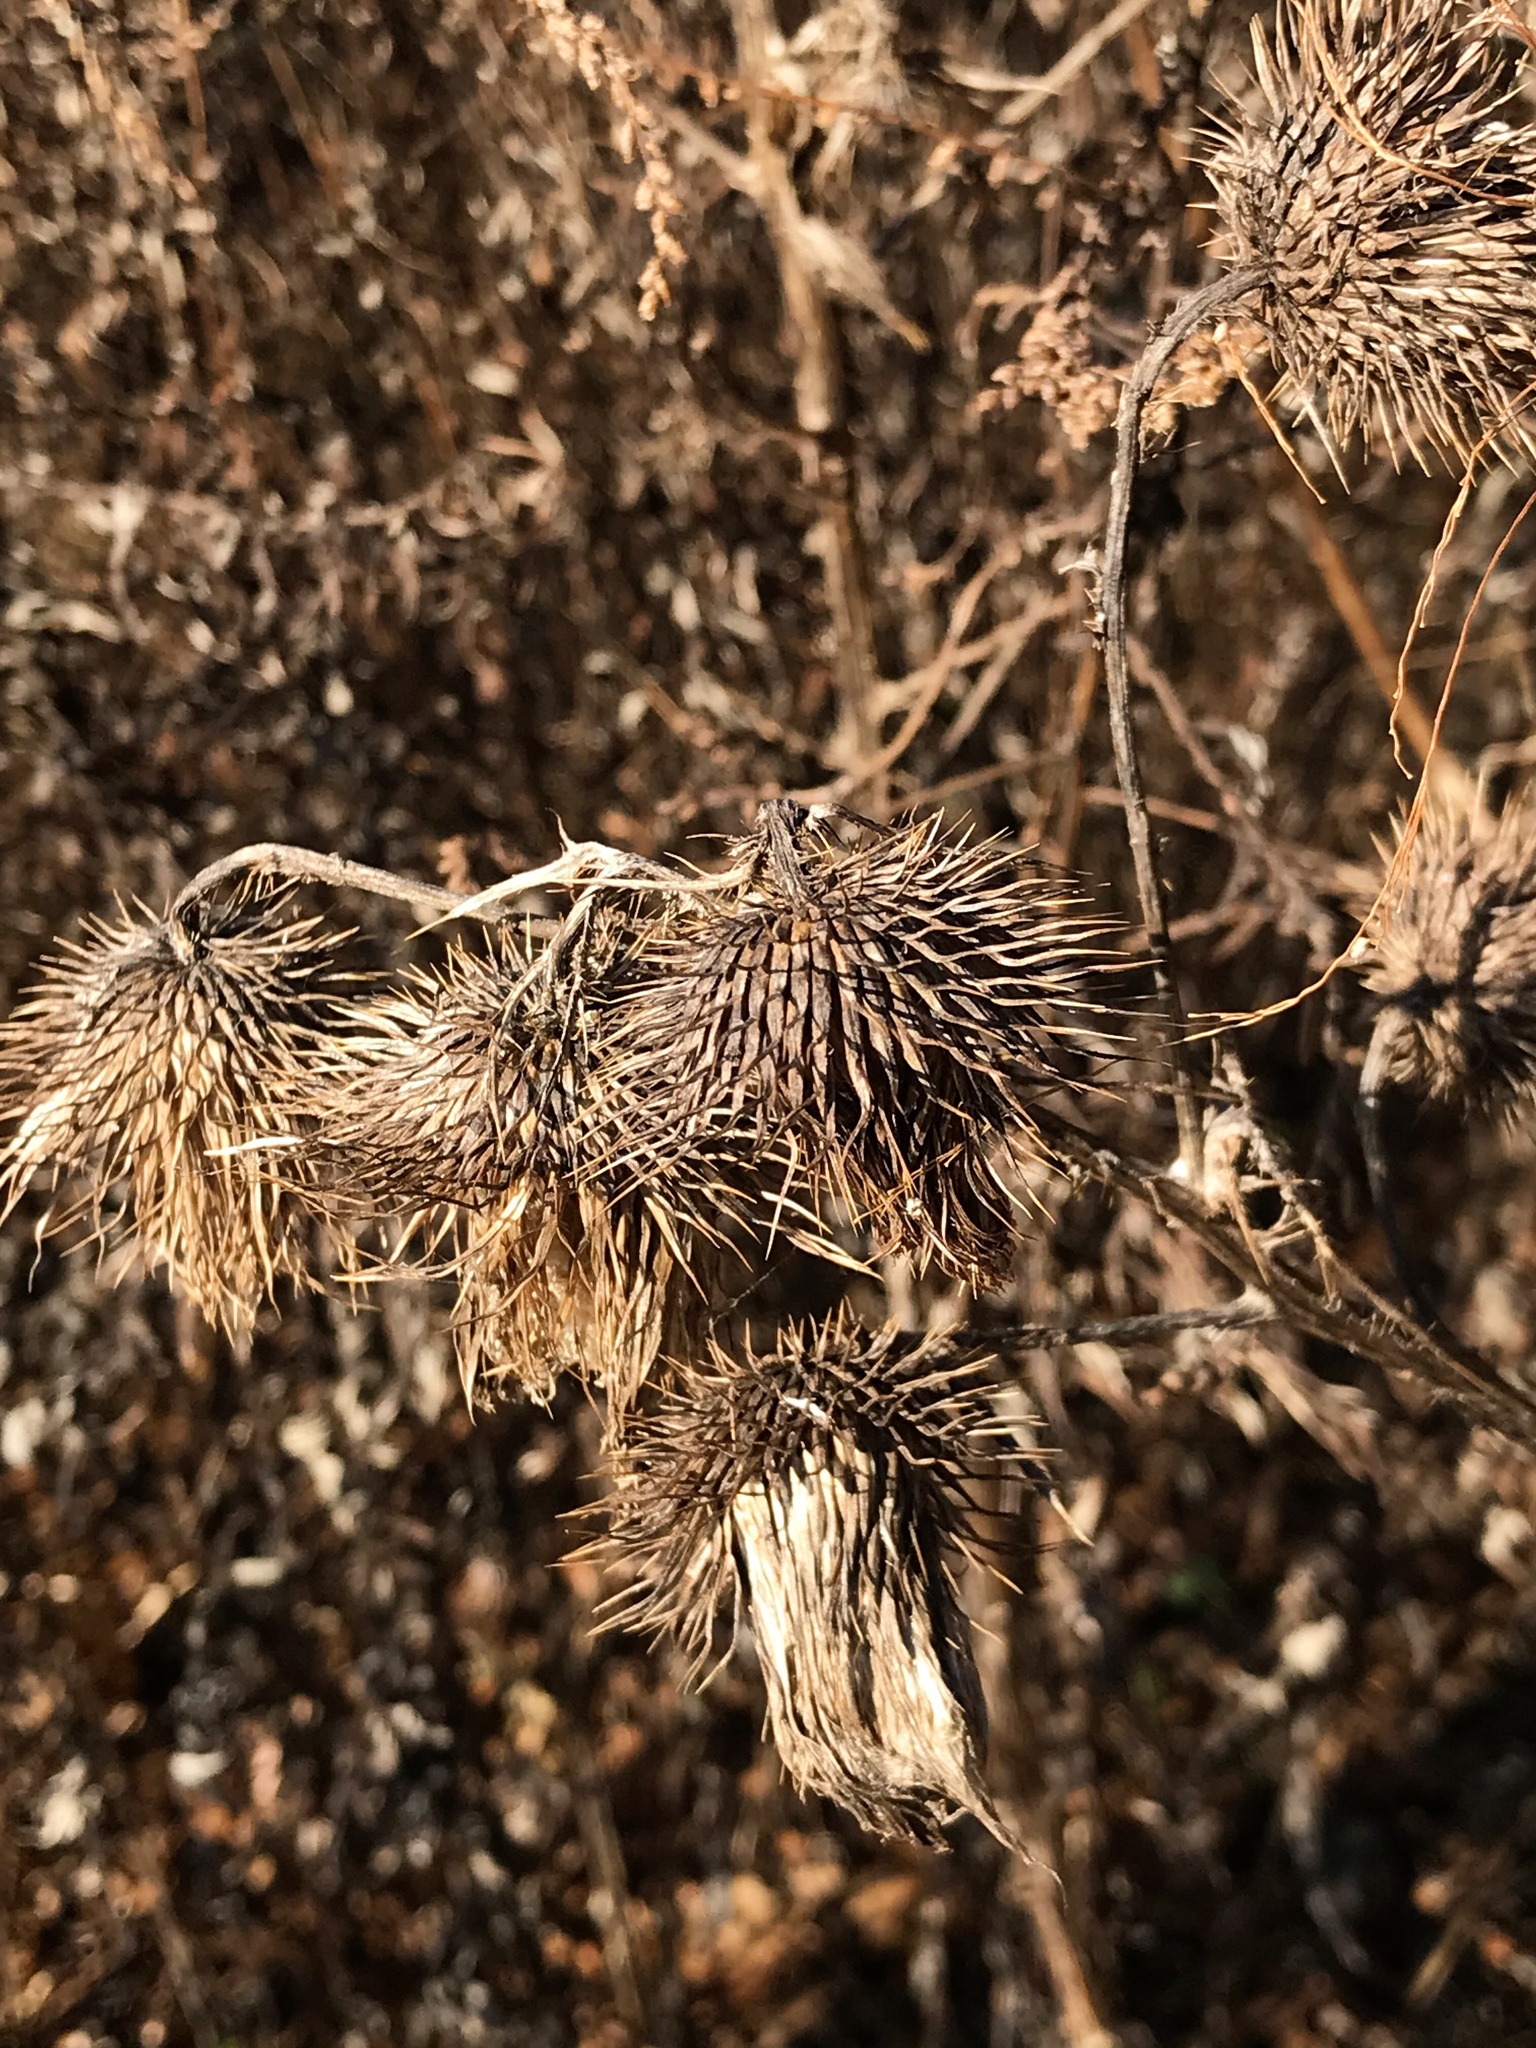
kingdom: Plantae
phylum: Tracheophyta
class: Magnoliopsida
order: Asterales
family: Asteraceae
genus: Cirsium
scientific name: Cirsium vulgare
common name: Bull thistle
